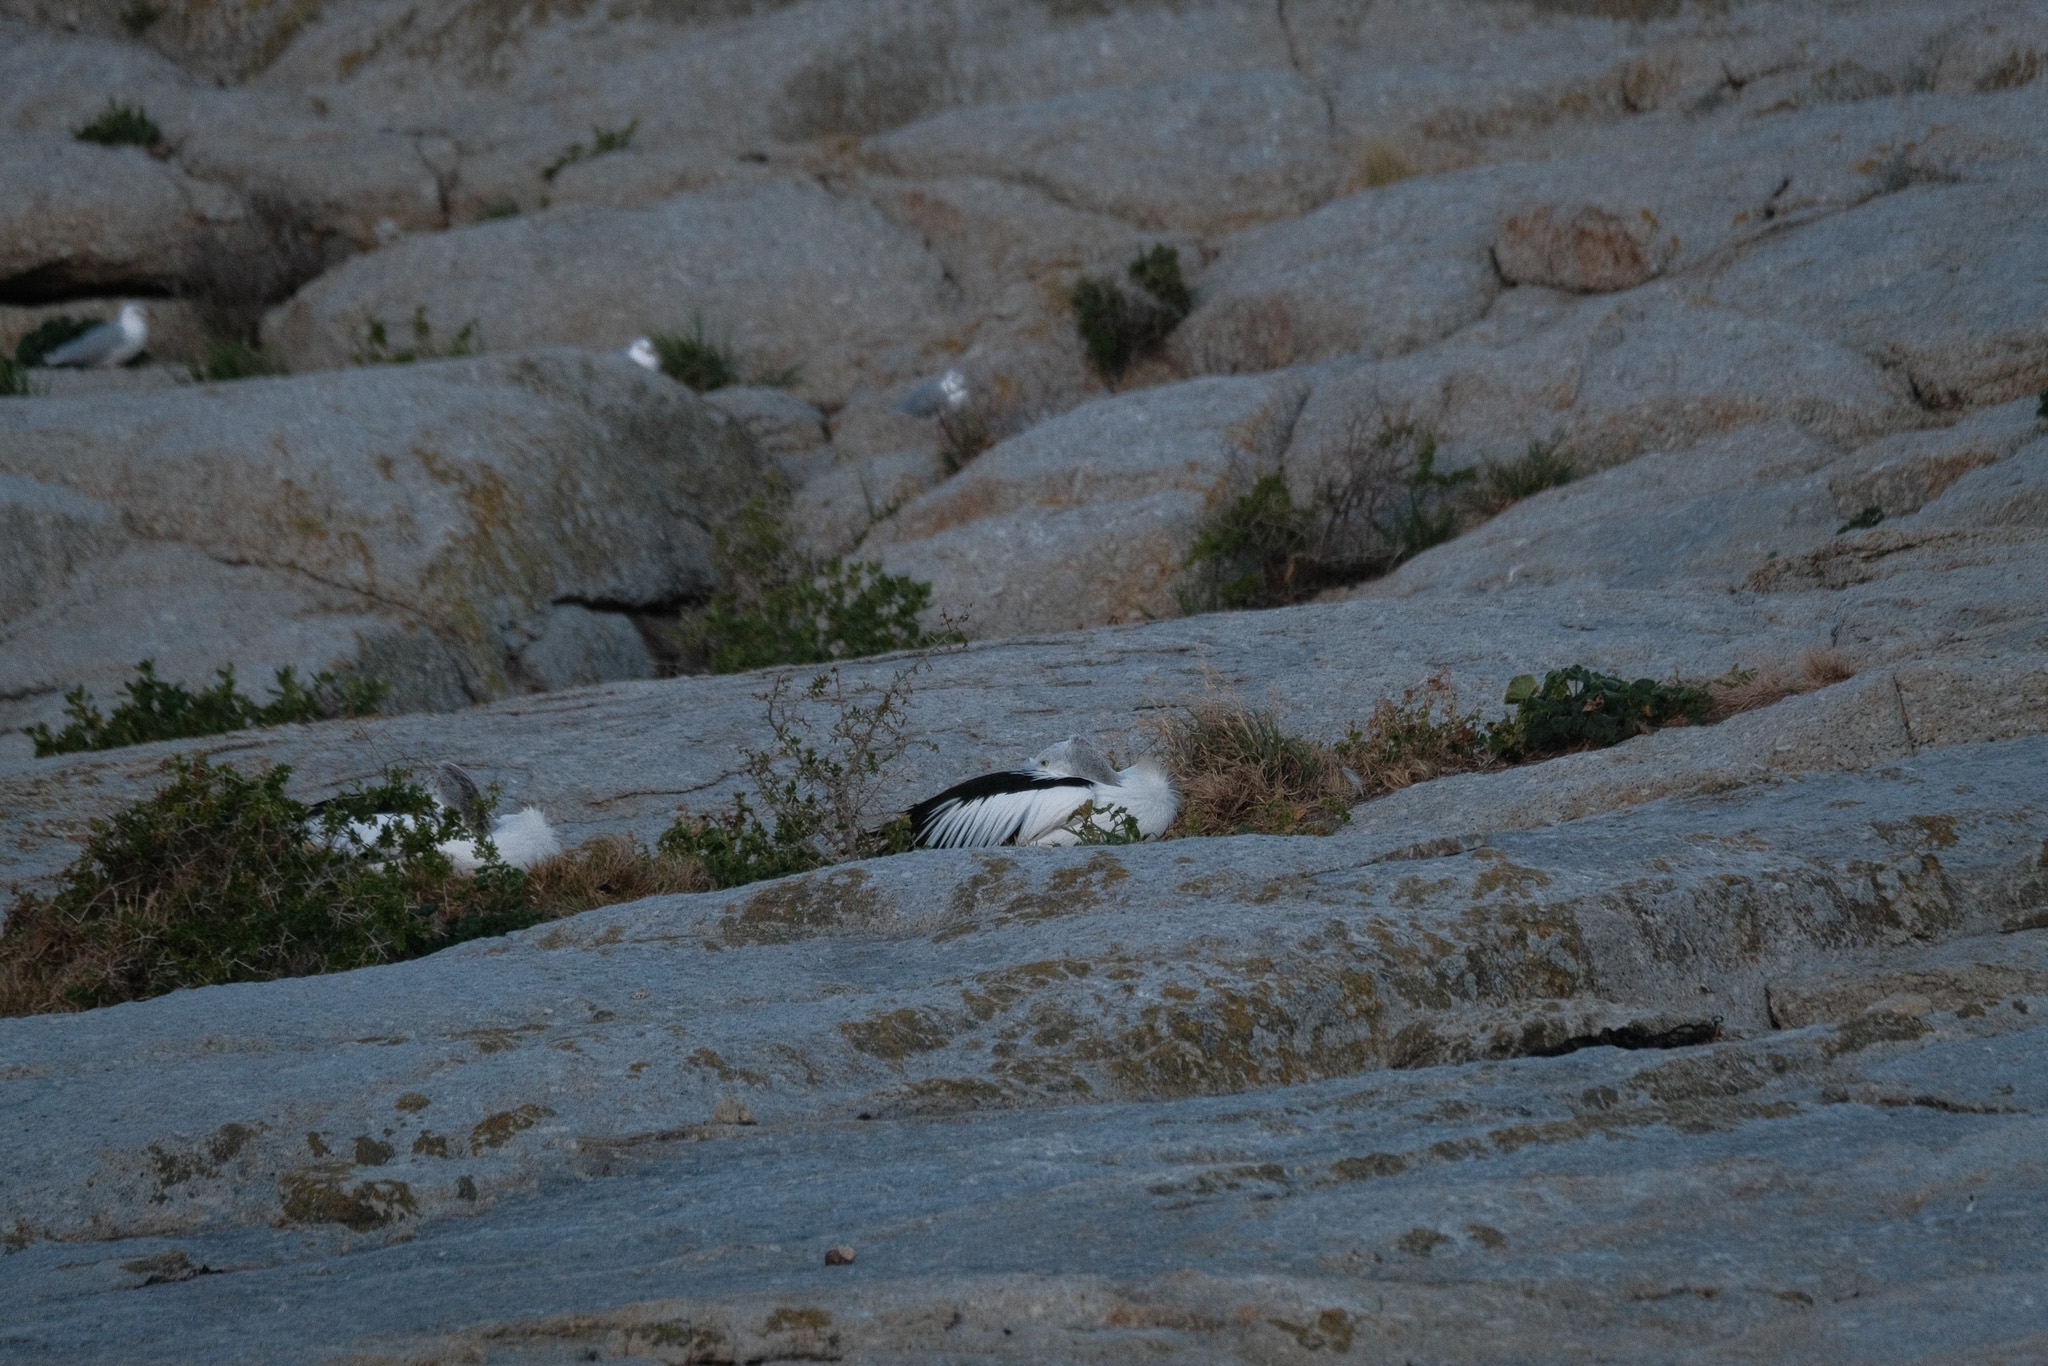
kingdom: Animalia
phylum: Chordata
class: Aves
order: Pelecaniformes
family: Pelecanidae
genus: Pelecanus
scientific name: Pelecanus conspicillatus
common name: Australian pelican
